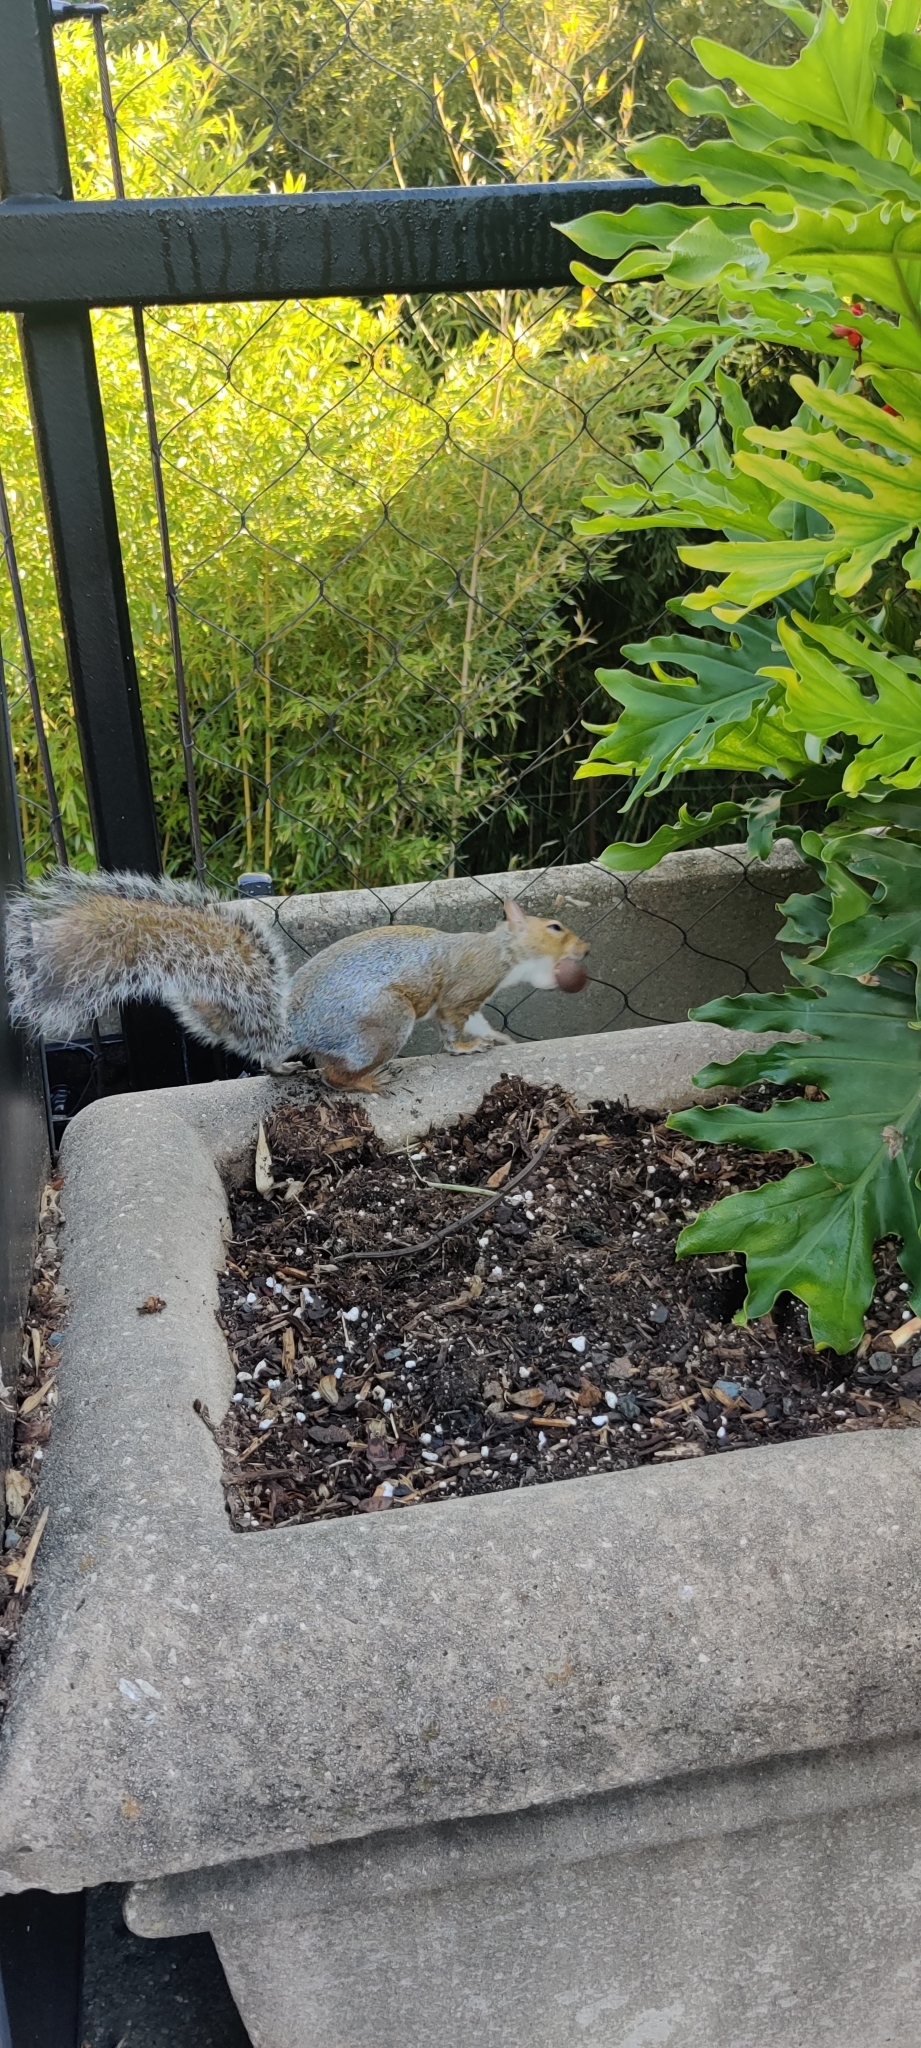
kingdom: Animalia
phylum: Chordata
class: Mammalia
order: Rodentia
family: Sciuridae
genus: Sciurus
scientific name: Sciurus carolinensis
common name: Eastern gray squirrel
